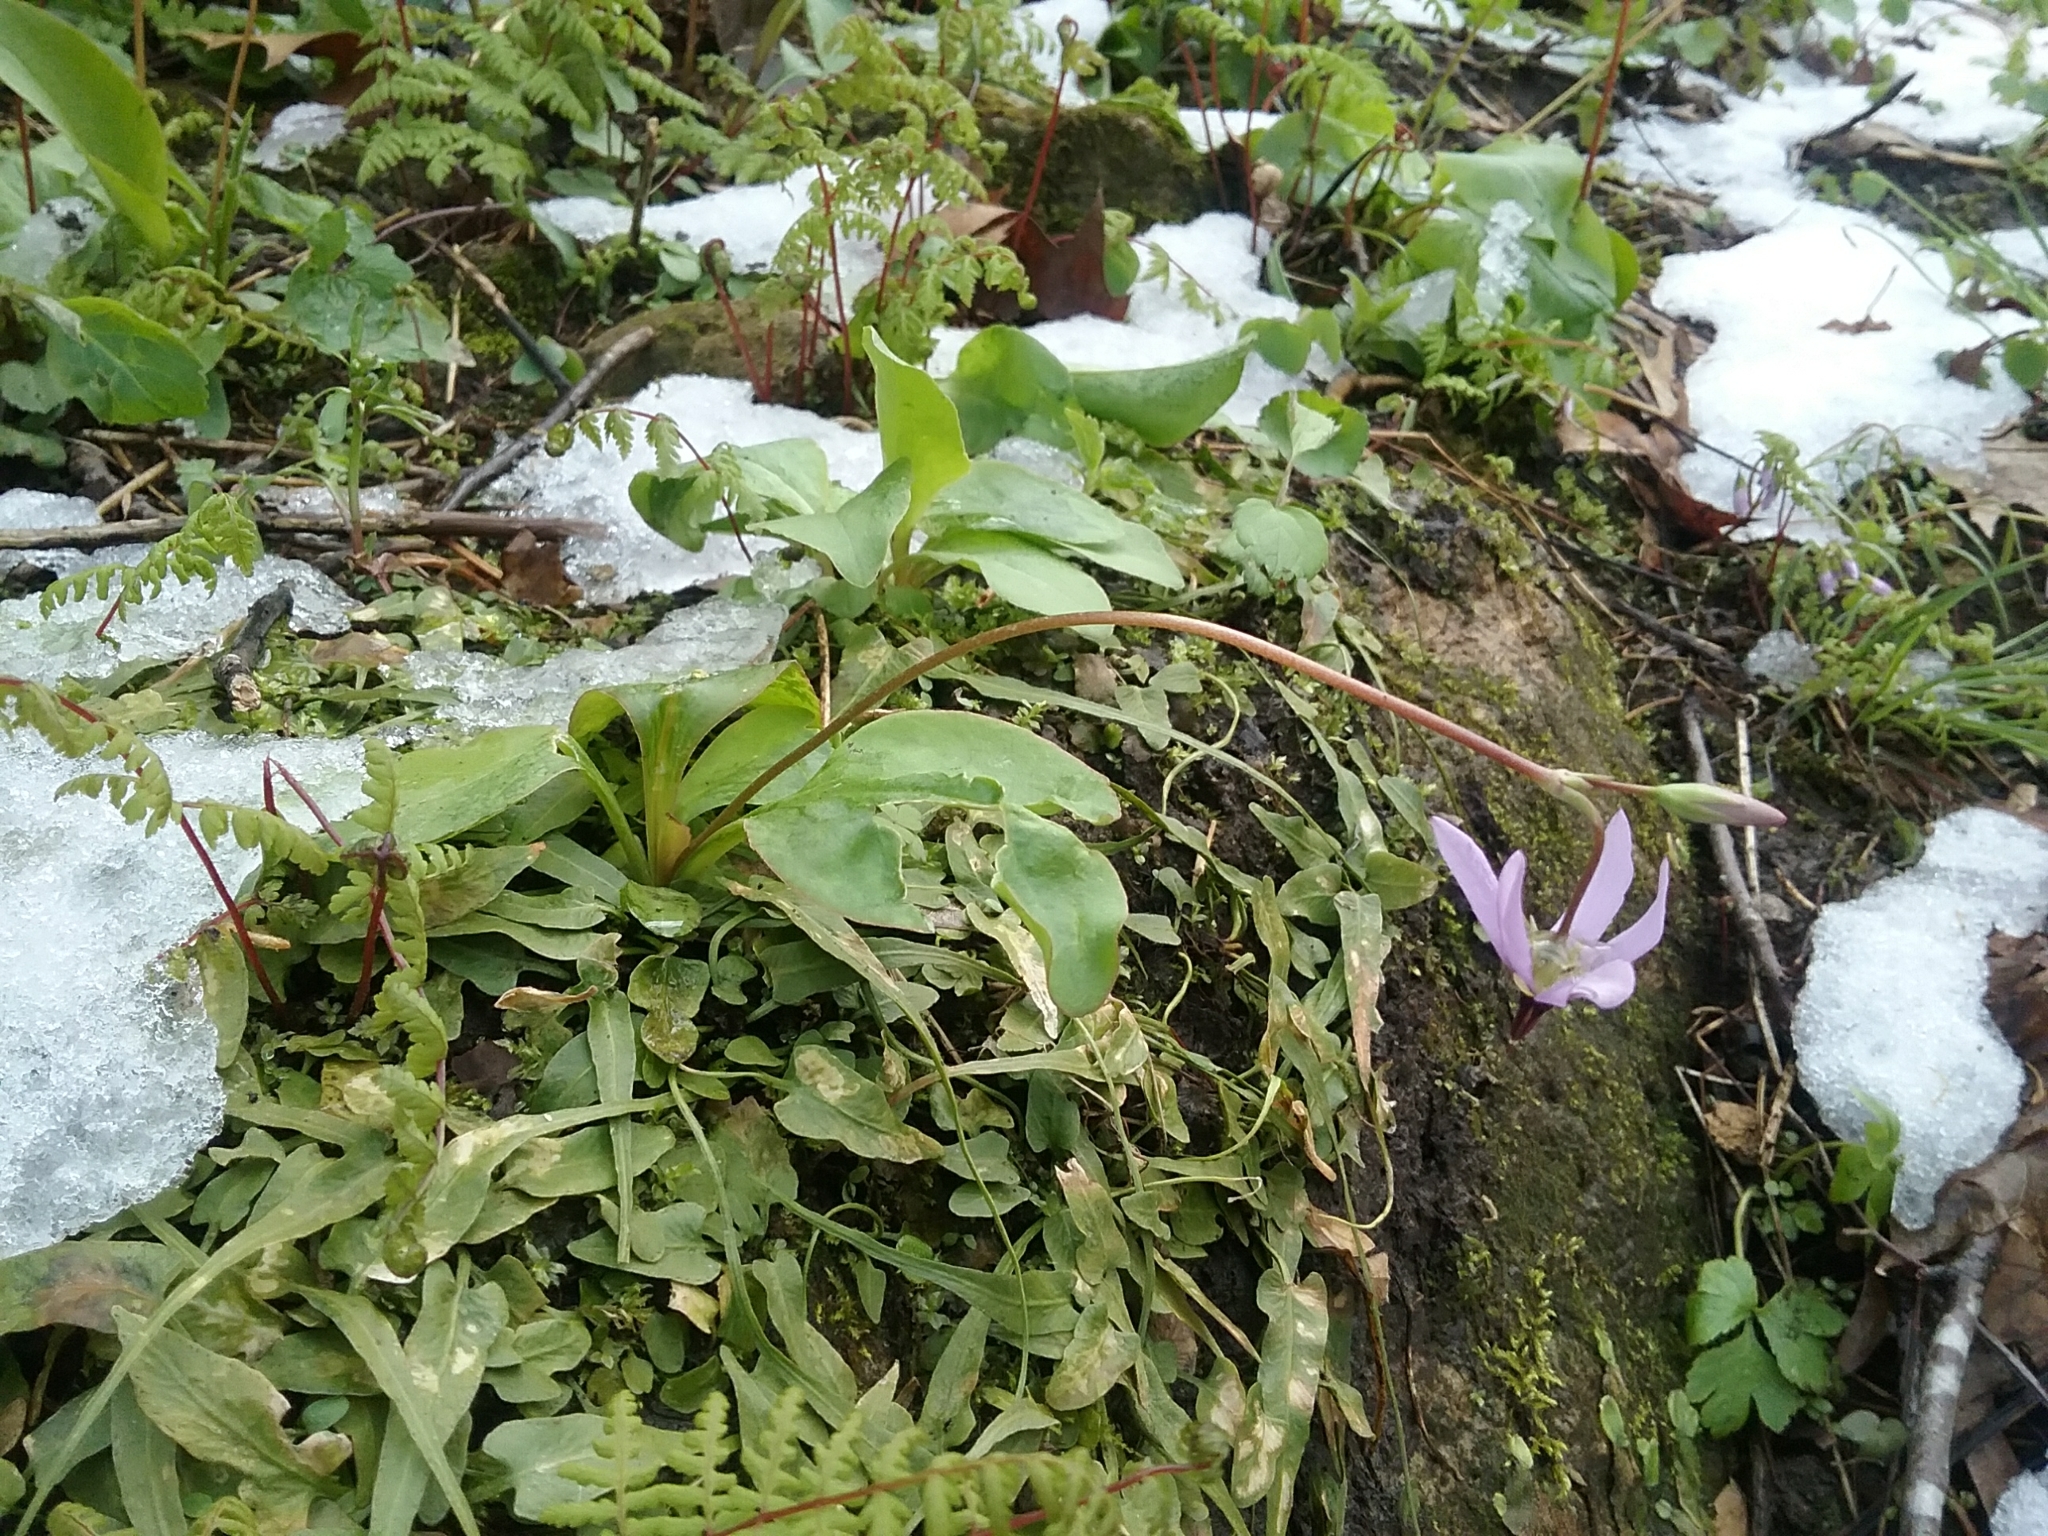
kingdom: Plantae
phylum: Tracheophyta
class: Magnoliopsida
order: Ericales
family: Primulaceae
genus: Dodecatheon
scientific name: Dodecatheon meadia
